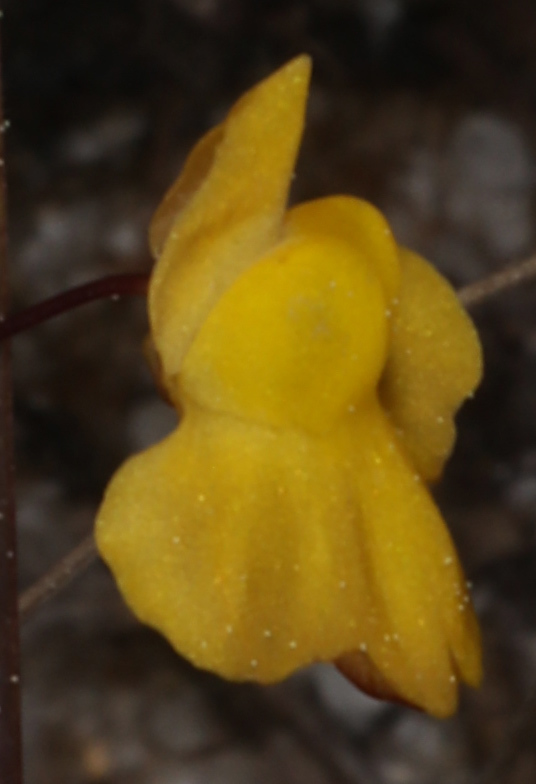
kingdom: Plantae
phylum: Tracheophyta
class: Magnoliopsida
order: Lamiales
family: Lentibulariaceae
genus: Utricularia
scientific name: Utricularia subulata
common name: Tiny bladderwort
